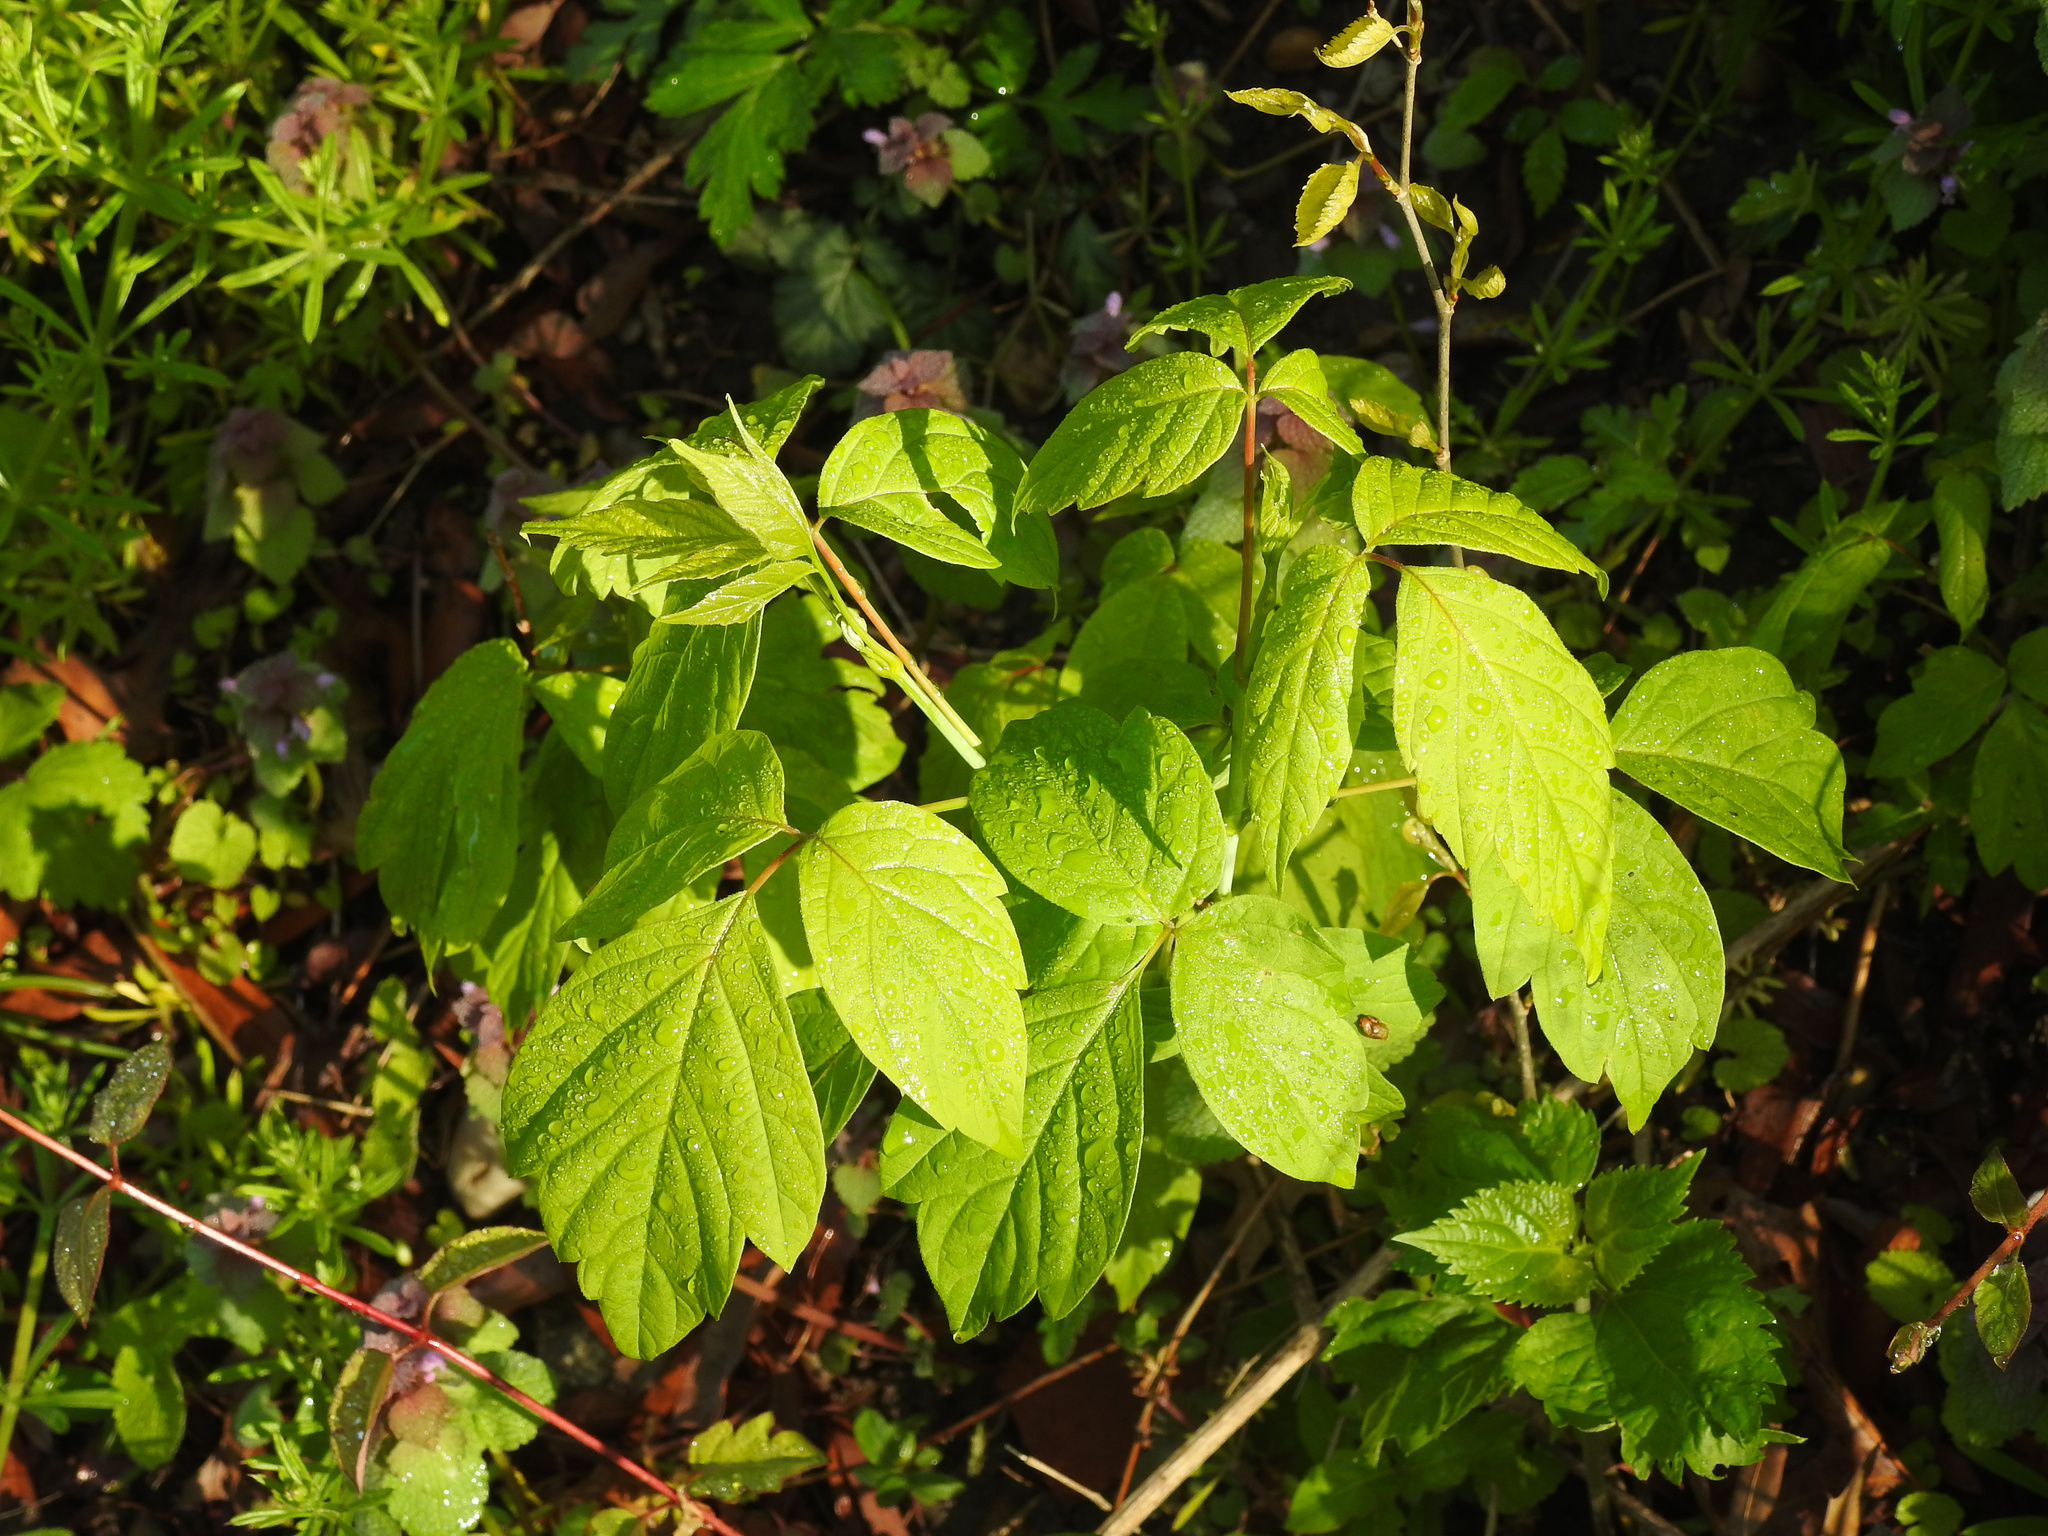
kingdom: Plantae
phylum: Tracheophyta
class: Magnoliopsida
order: Sapindales
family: Sapindaceae
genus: Acer
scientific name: Acer negundo
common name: Ashleaf maple
